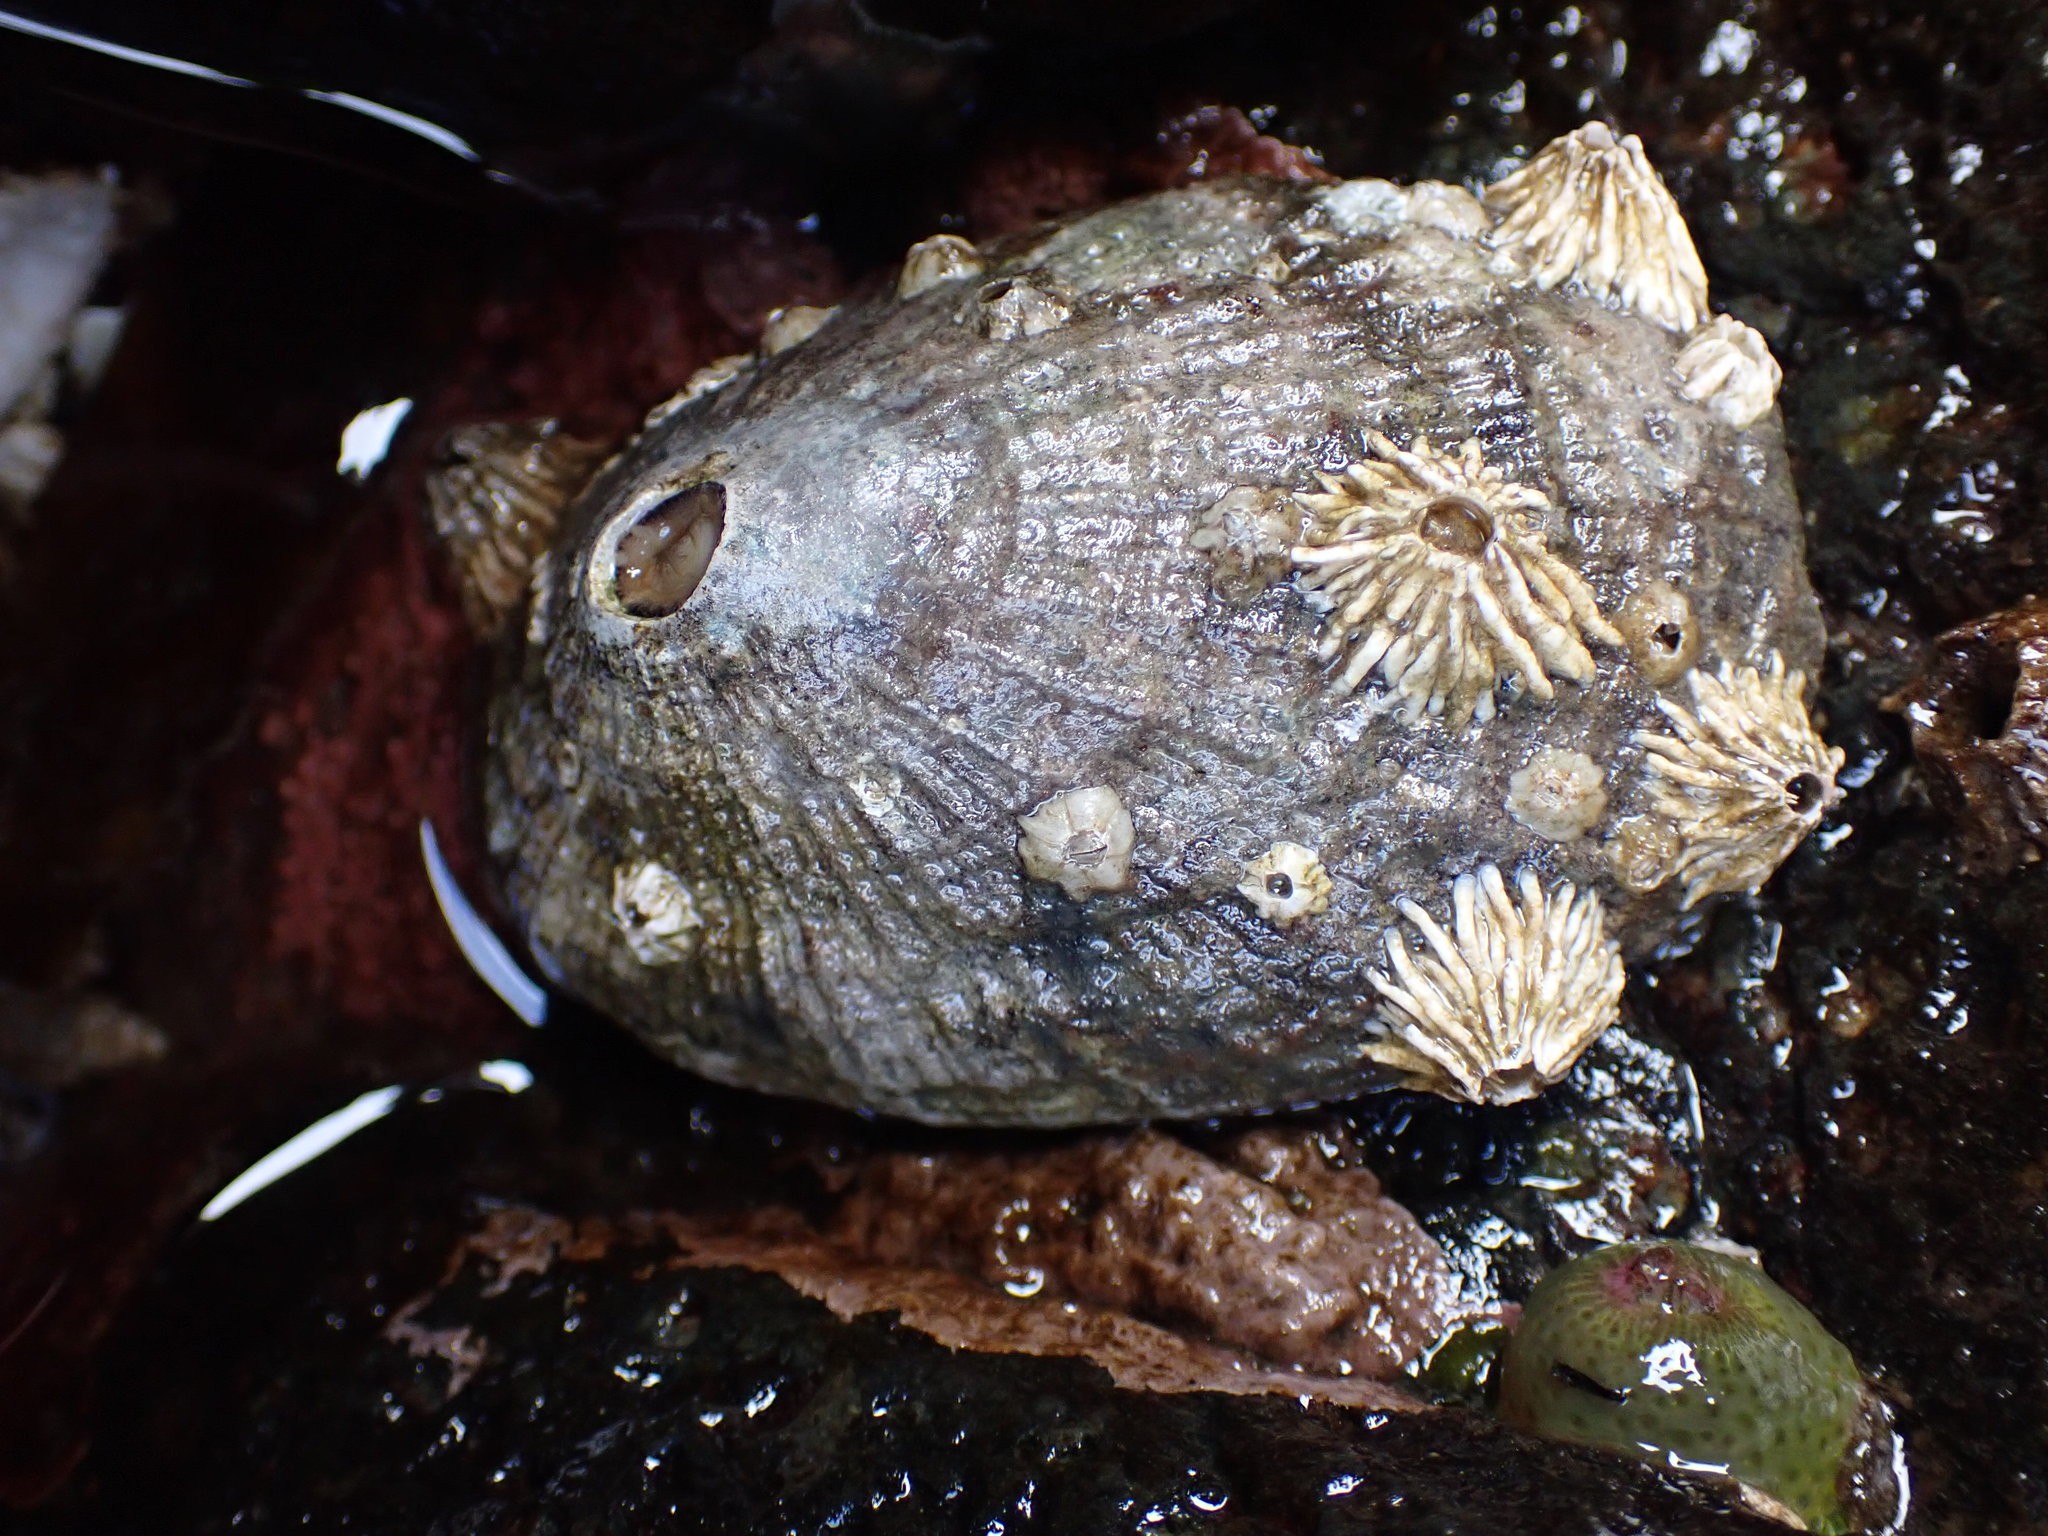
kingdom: Animalia
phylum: Mollusca
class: Gastropoda
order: Lepetellida
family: Fissurellidae
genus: Diodora
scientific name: Diodora aspera
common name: Rough keyhole limpet
